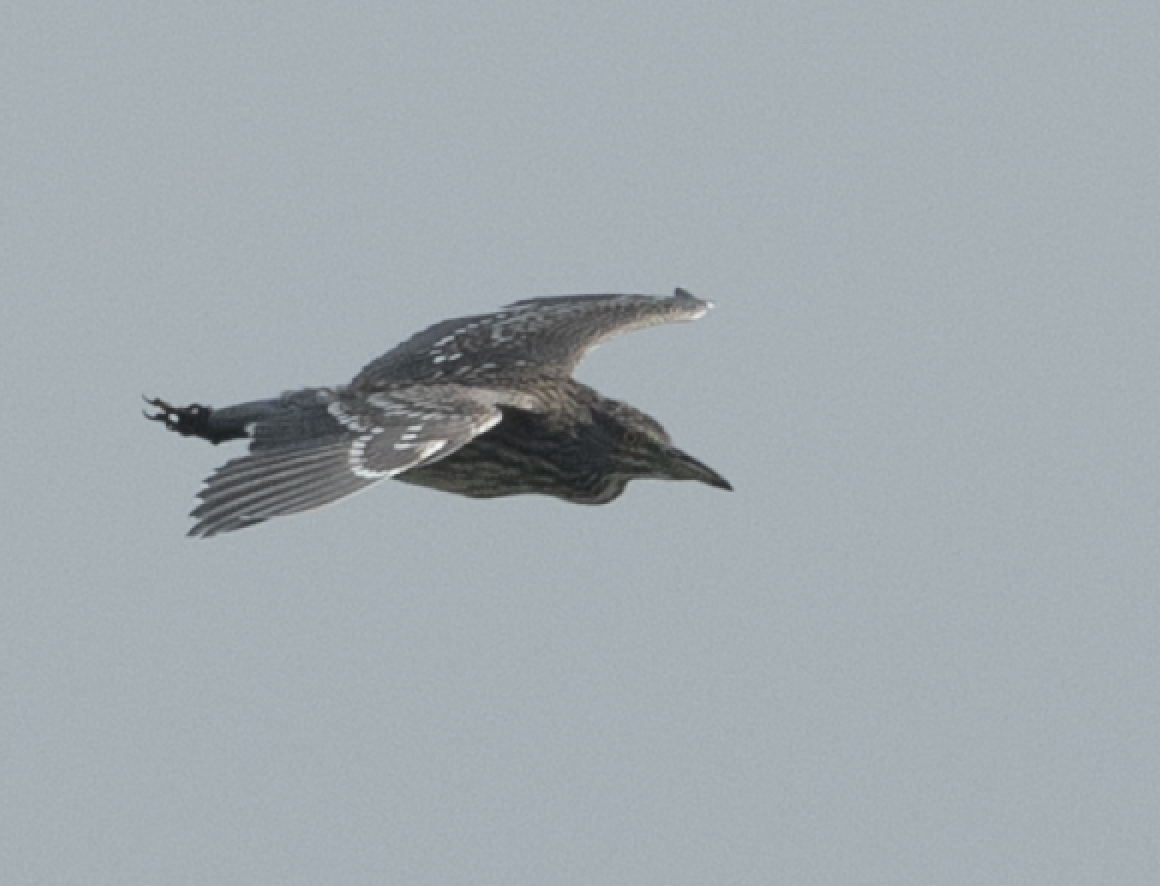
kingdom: Animalia
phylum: Chordata
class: Aves
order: Pelecaniformes
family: Ardeidae
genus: Nycticorax
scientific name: Nycticorax nycticorax
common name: Black-crowned night heron
